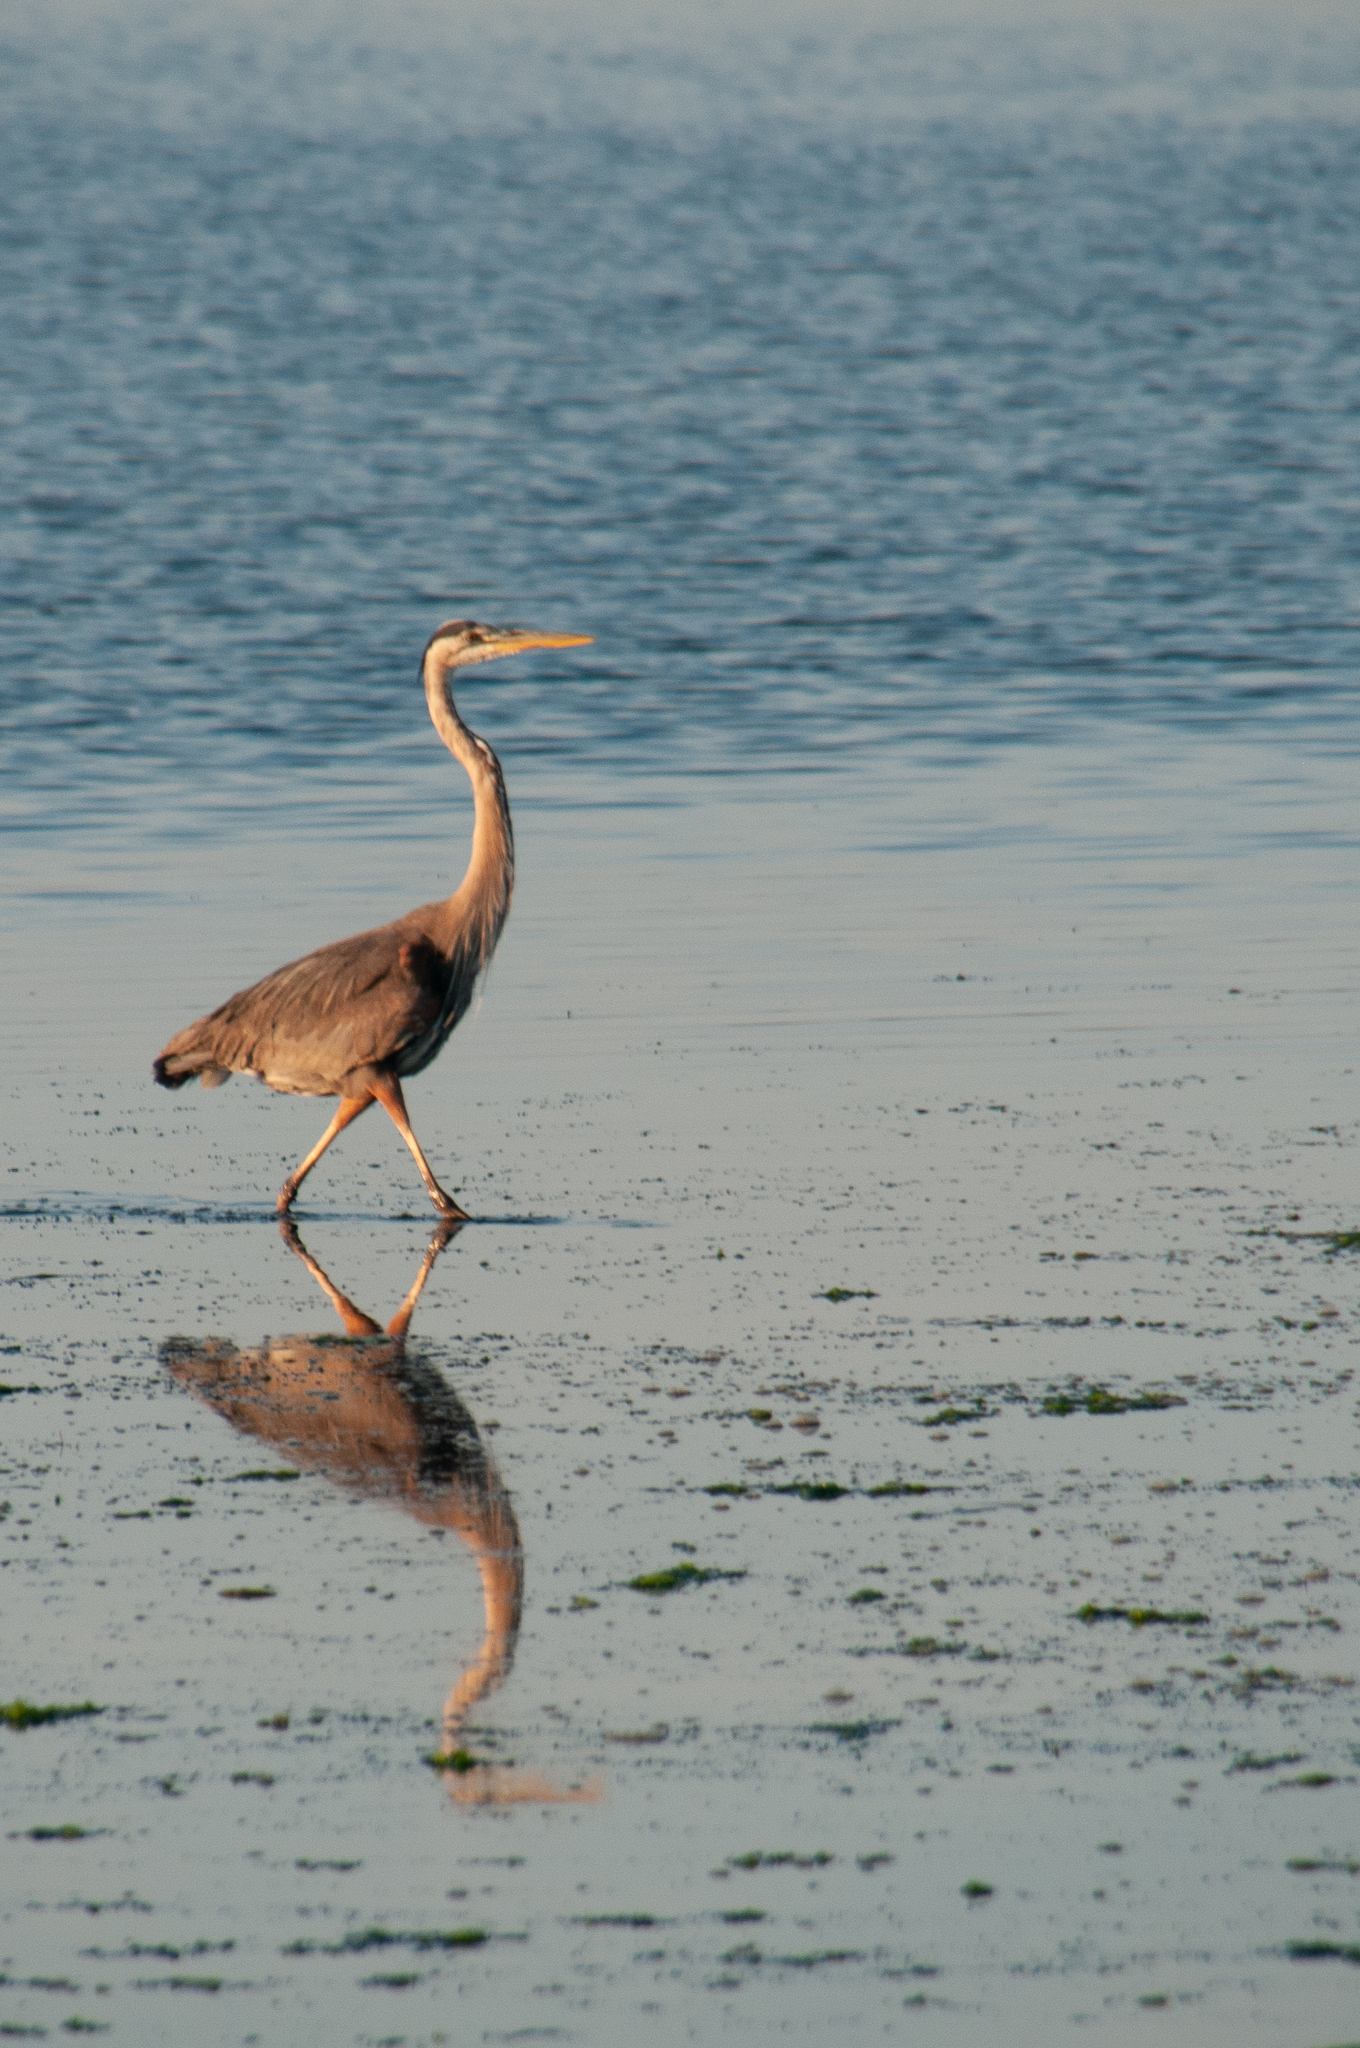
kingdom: Animalia
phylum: Chordata
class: Aves
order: Pelecaniformes
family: Ardeidae
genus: Ardea
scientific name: Ardea herodias
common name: Great blue heron
